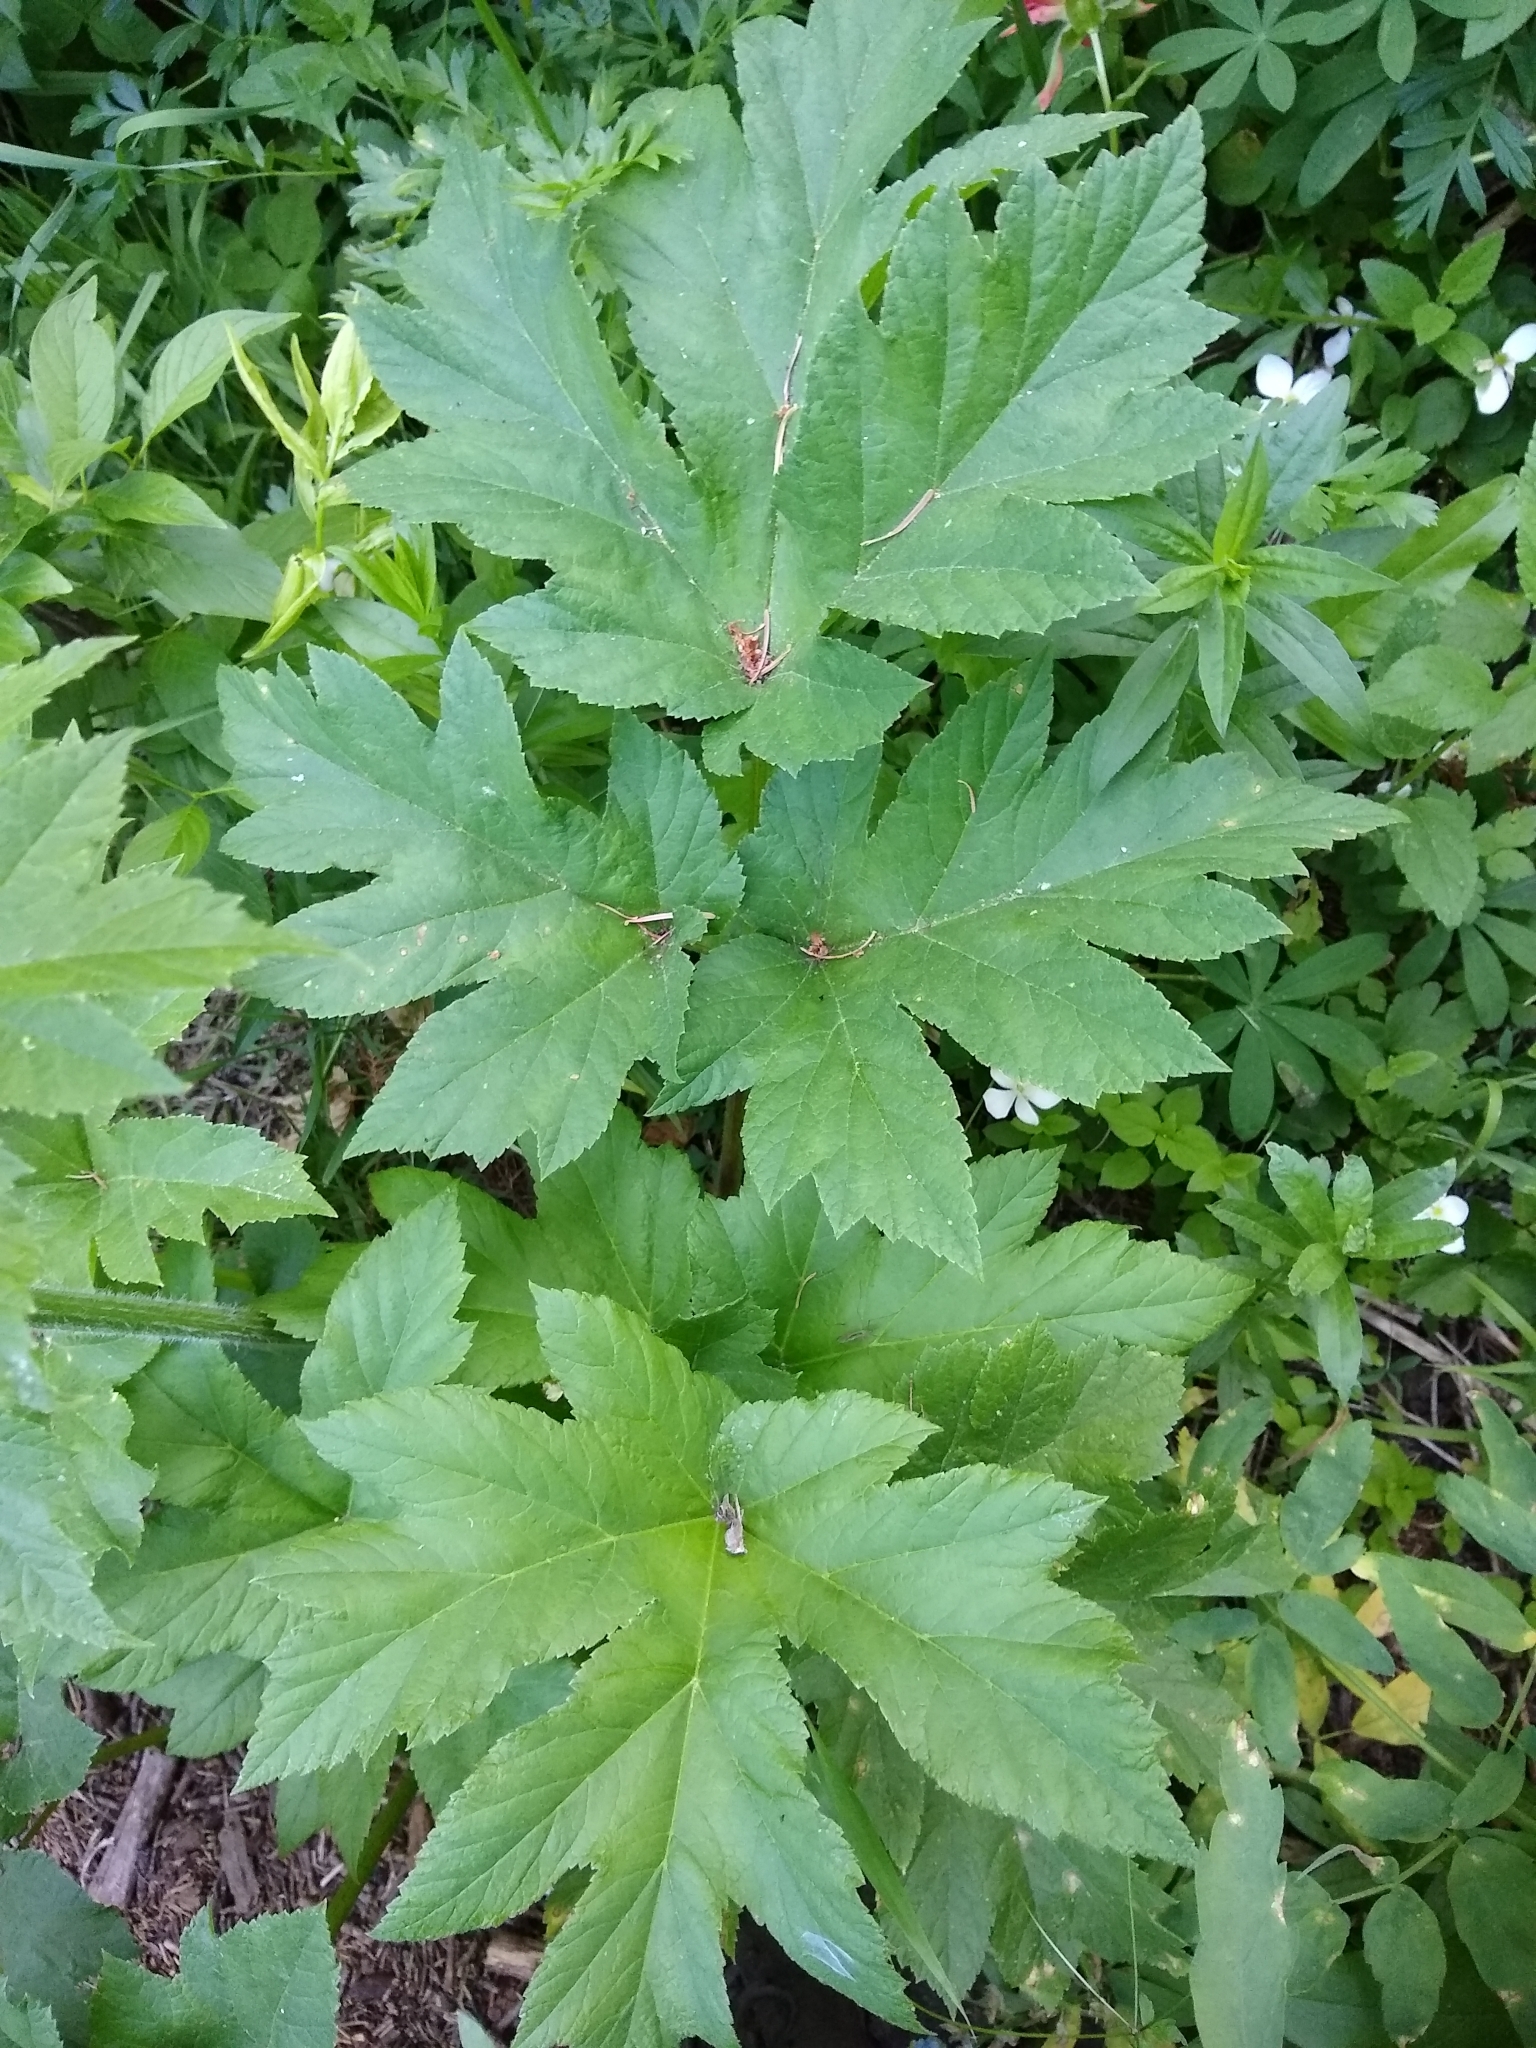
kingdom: Plantae
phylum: Tracheophyta
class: Magnoliopsida
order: Apiales
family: Apiaceae
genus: Heracleum
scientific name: Heracleum maximum
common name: American cow parsnip
